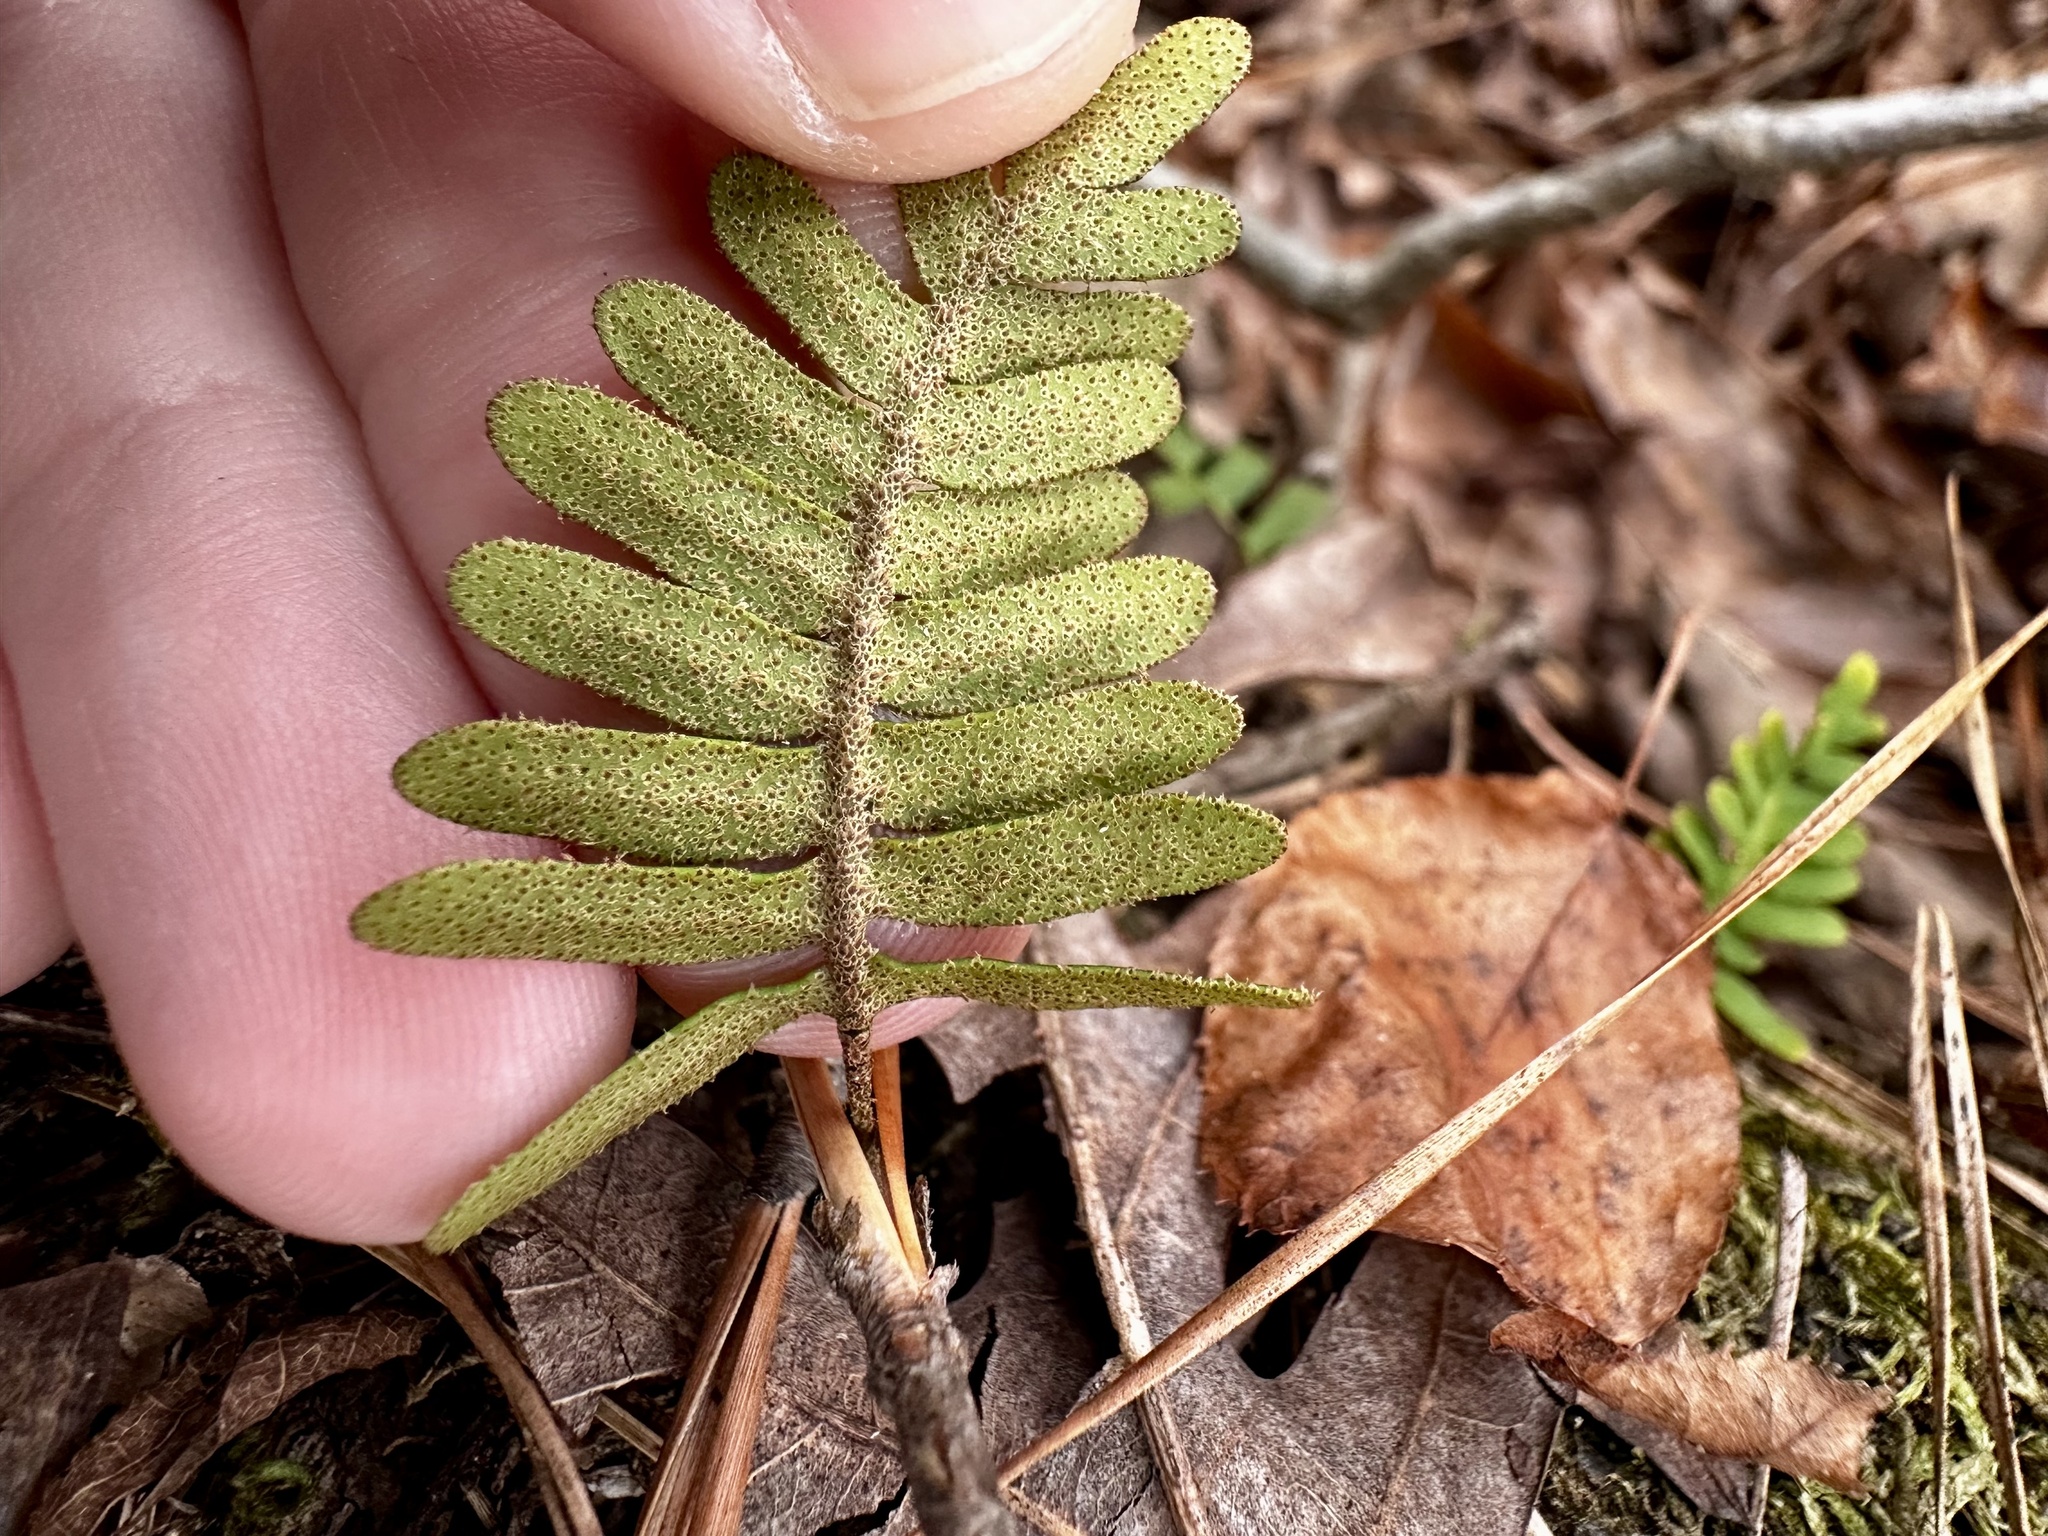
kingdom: Plantae
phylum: Tracheophyta
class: Polypodiopsida
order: Polypodiales
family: Polypodiaceae
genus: Pleopeltis
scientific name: Pleopeltis michauxiana
